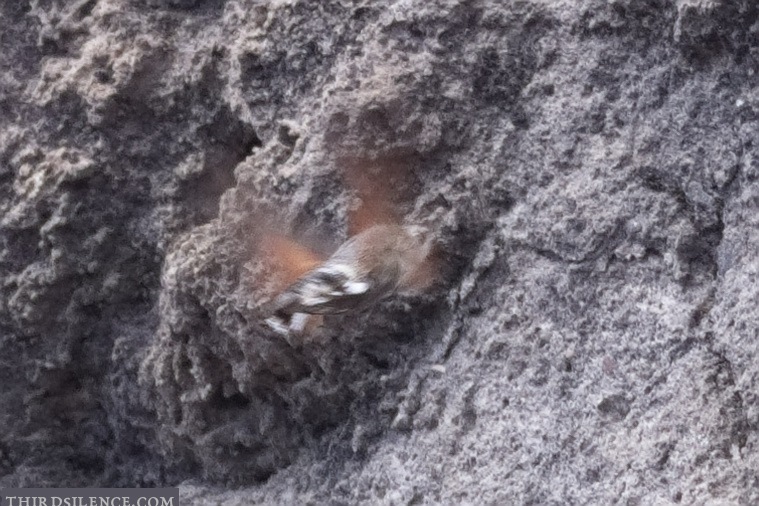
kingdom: Animalia
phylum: Arthropoda
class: Insecta
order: Lepidoptera
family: Sphingidae
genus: Macroglossum
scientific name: Macroglossum stellatarum
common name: Humming-bird hawk-moth
